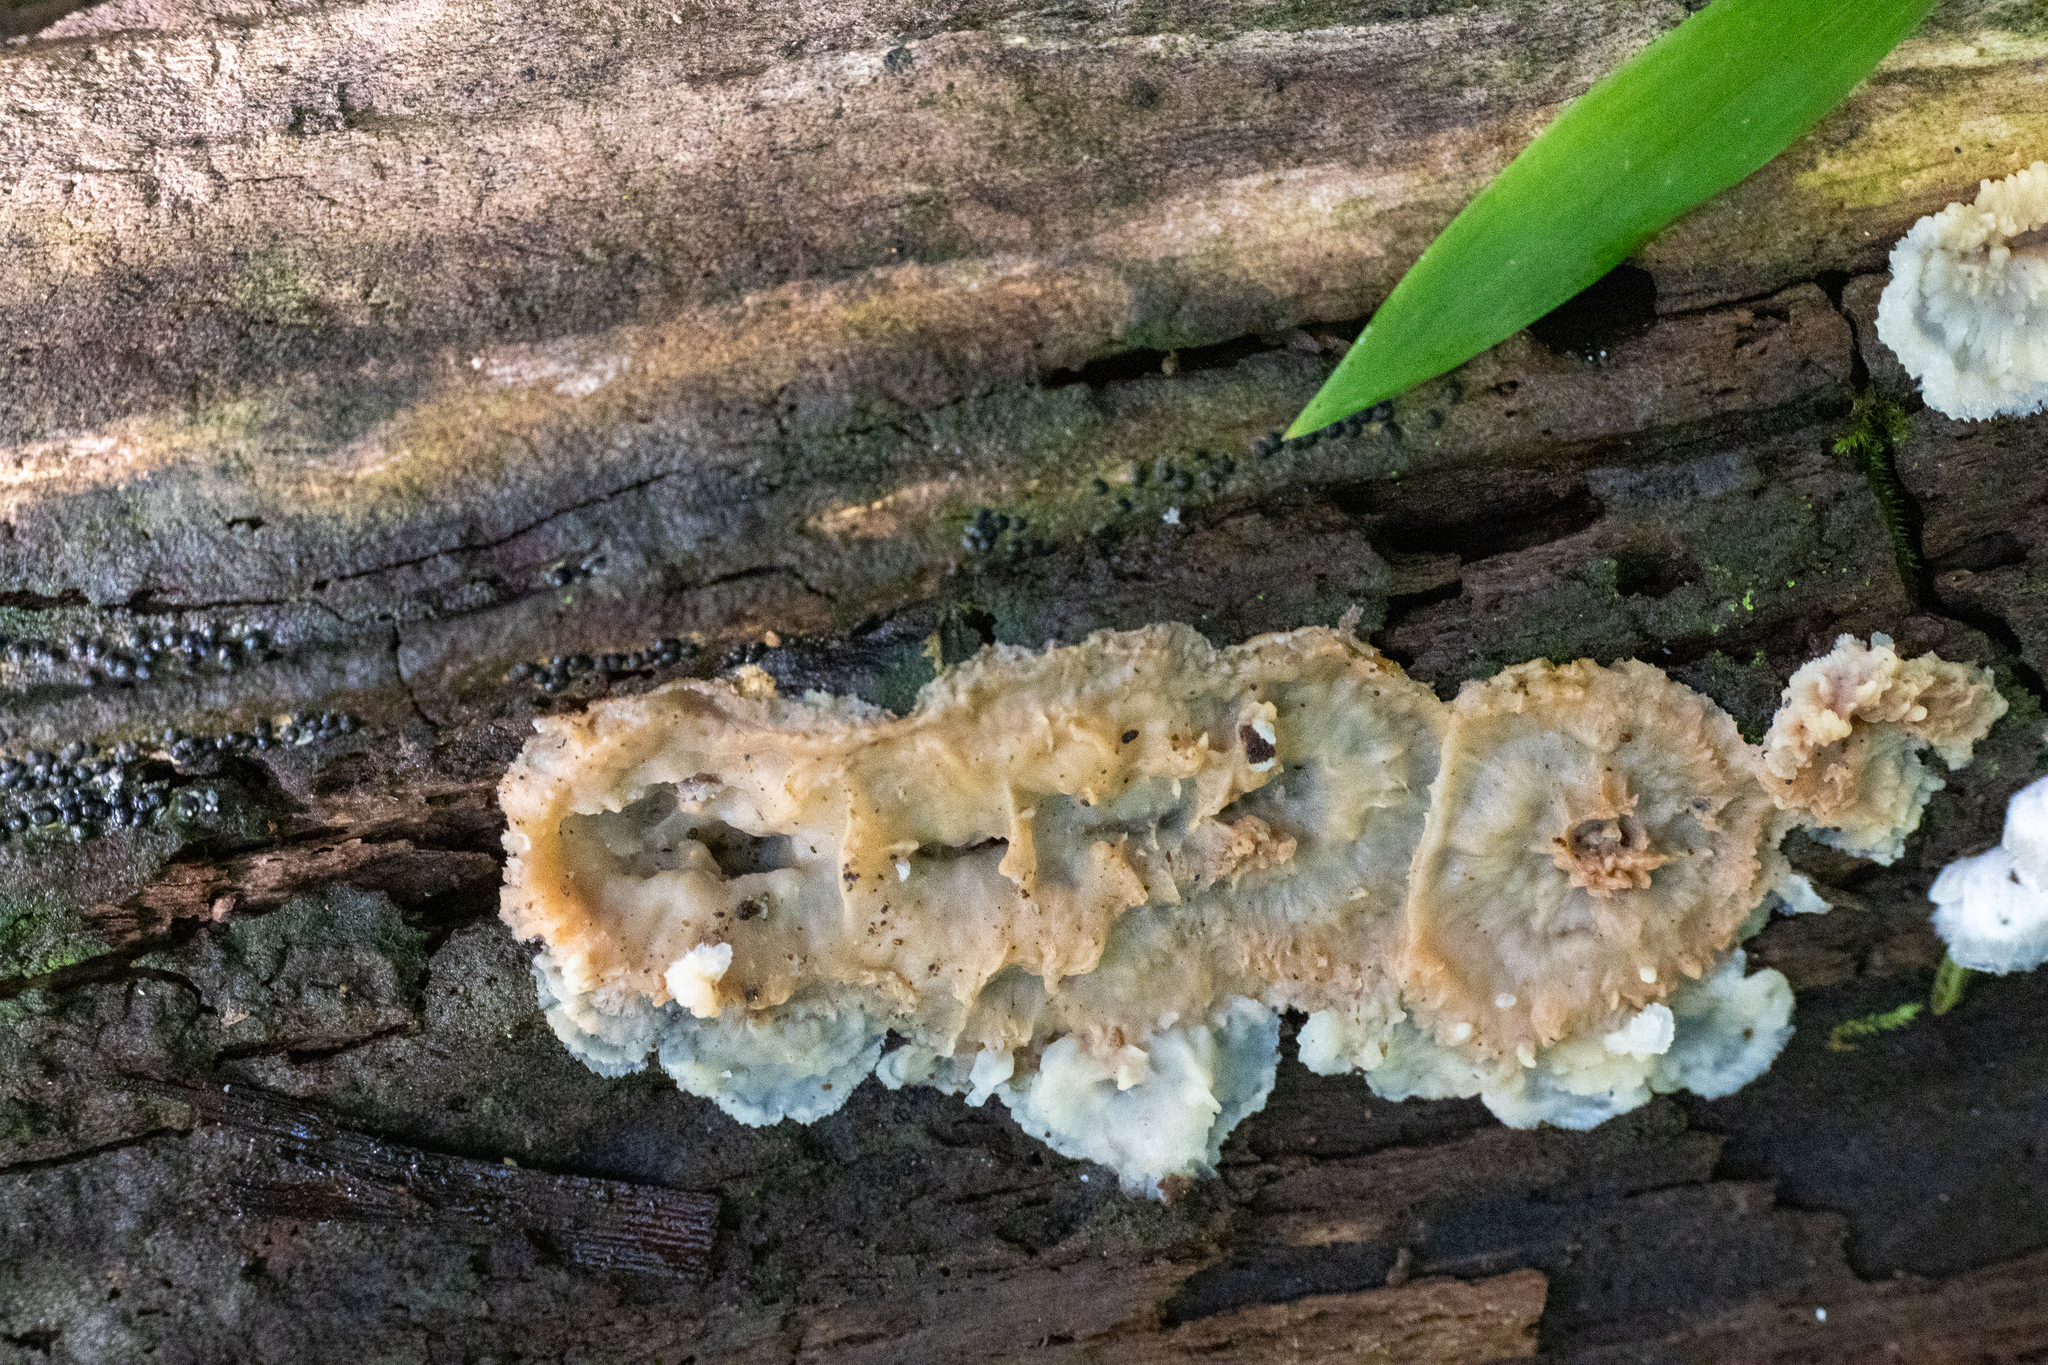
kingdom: Fungi
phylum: Basidiomycota
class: Agaricomycetes
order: Polyporales
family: Meruliaceae
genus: Phlebia
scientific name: Phlebia tremellosa
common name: Jelly rot
